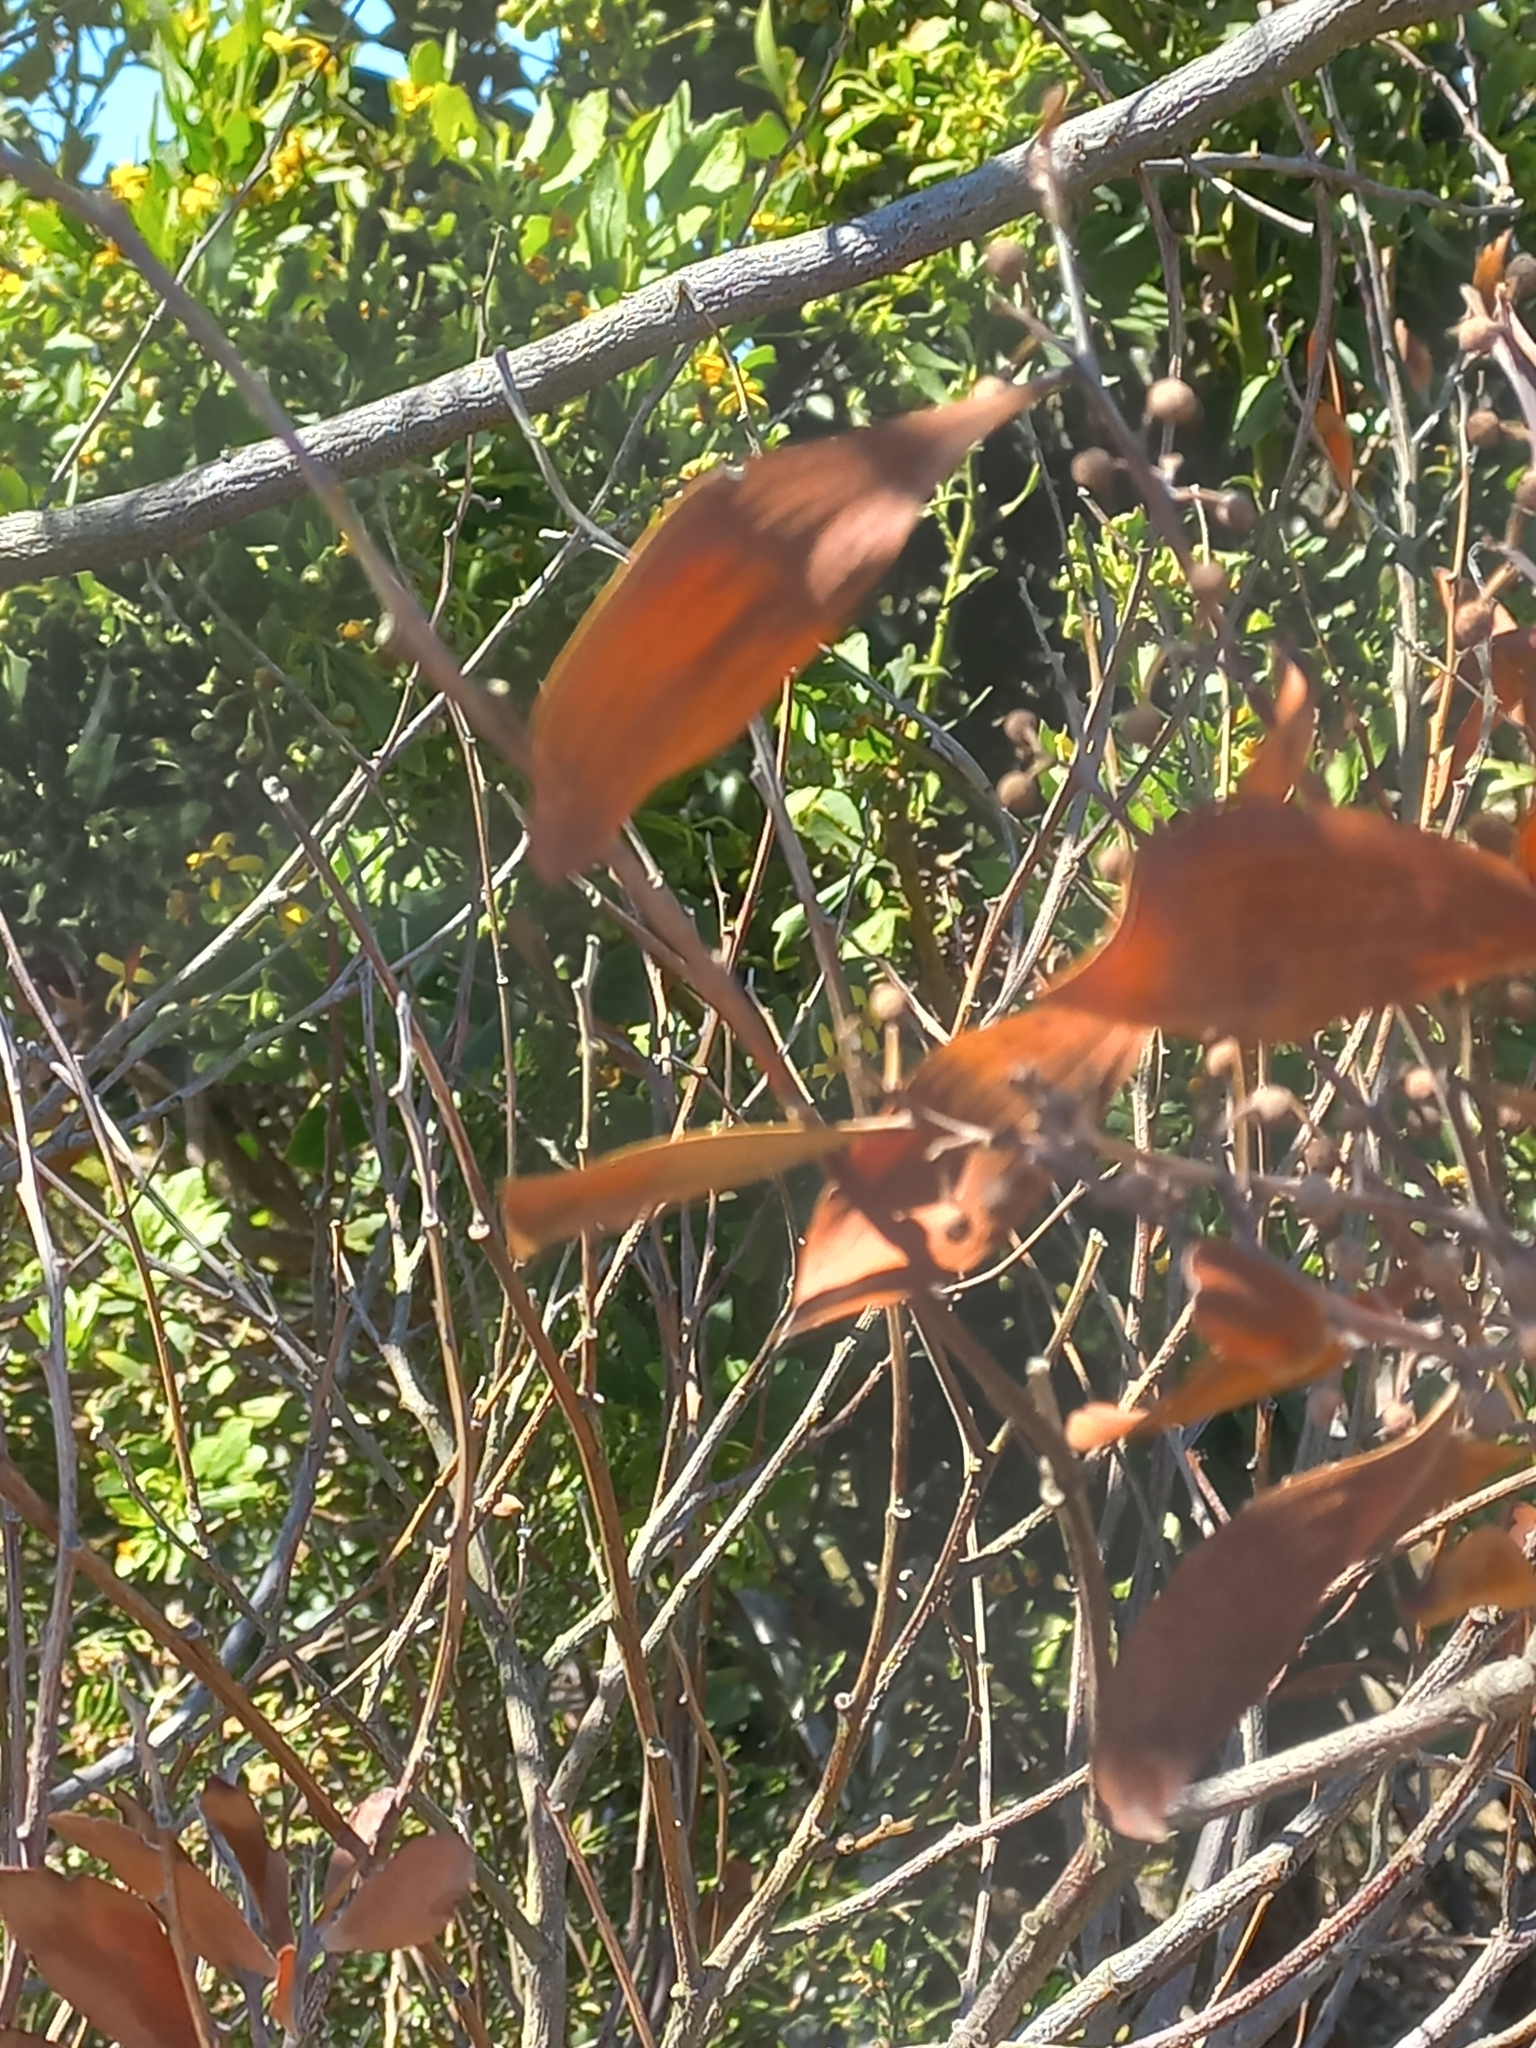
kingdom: Plantae
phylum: Tracheophyta
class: Magnoliopsida
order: Fabales
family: Fabaceae
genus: Acacia
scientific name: Acacia melanoxylon
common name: Blackwood
